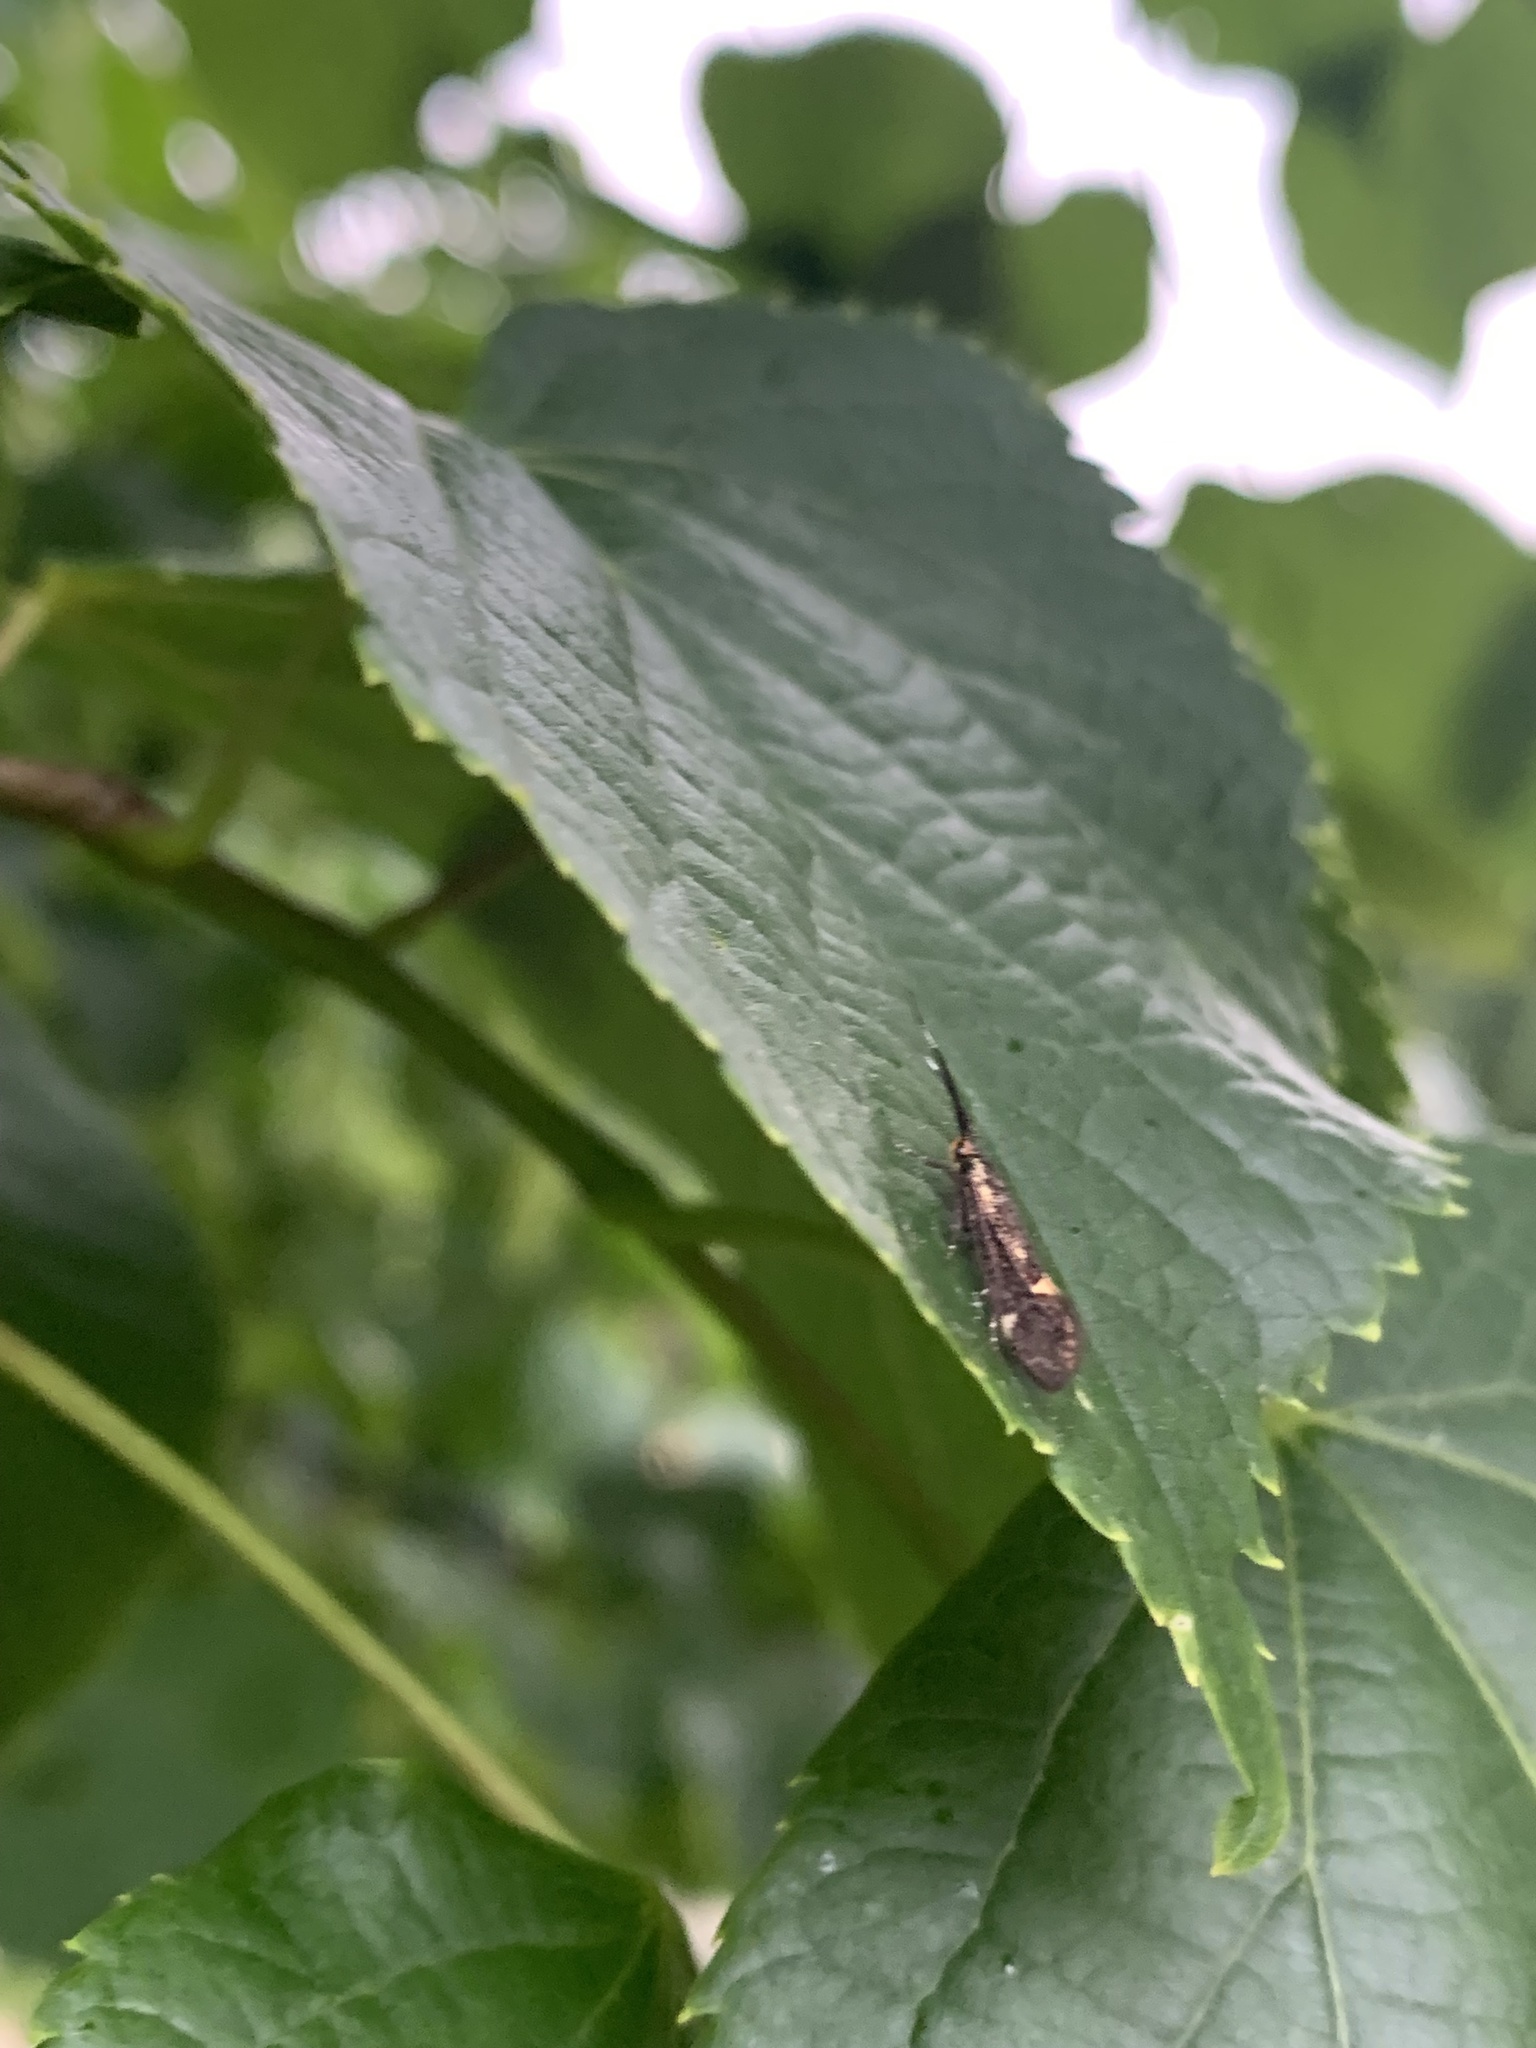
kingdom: Animalia
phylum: Arthropoda
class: Insecta
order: Lepidoptera
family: Oecophoridae
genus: Dafa
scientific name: Dafa Esperia sulphurella
